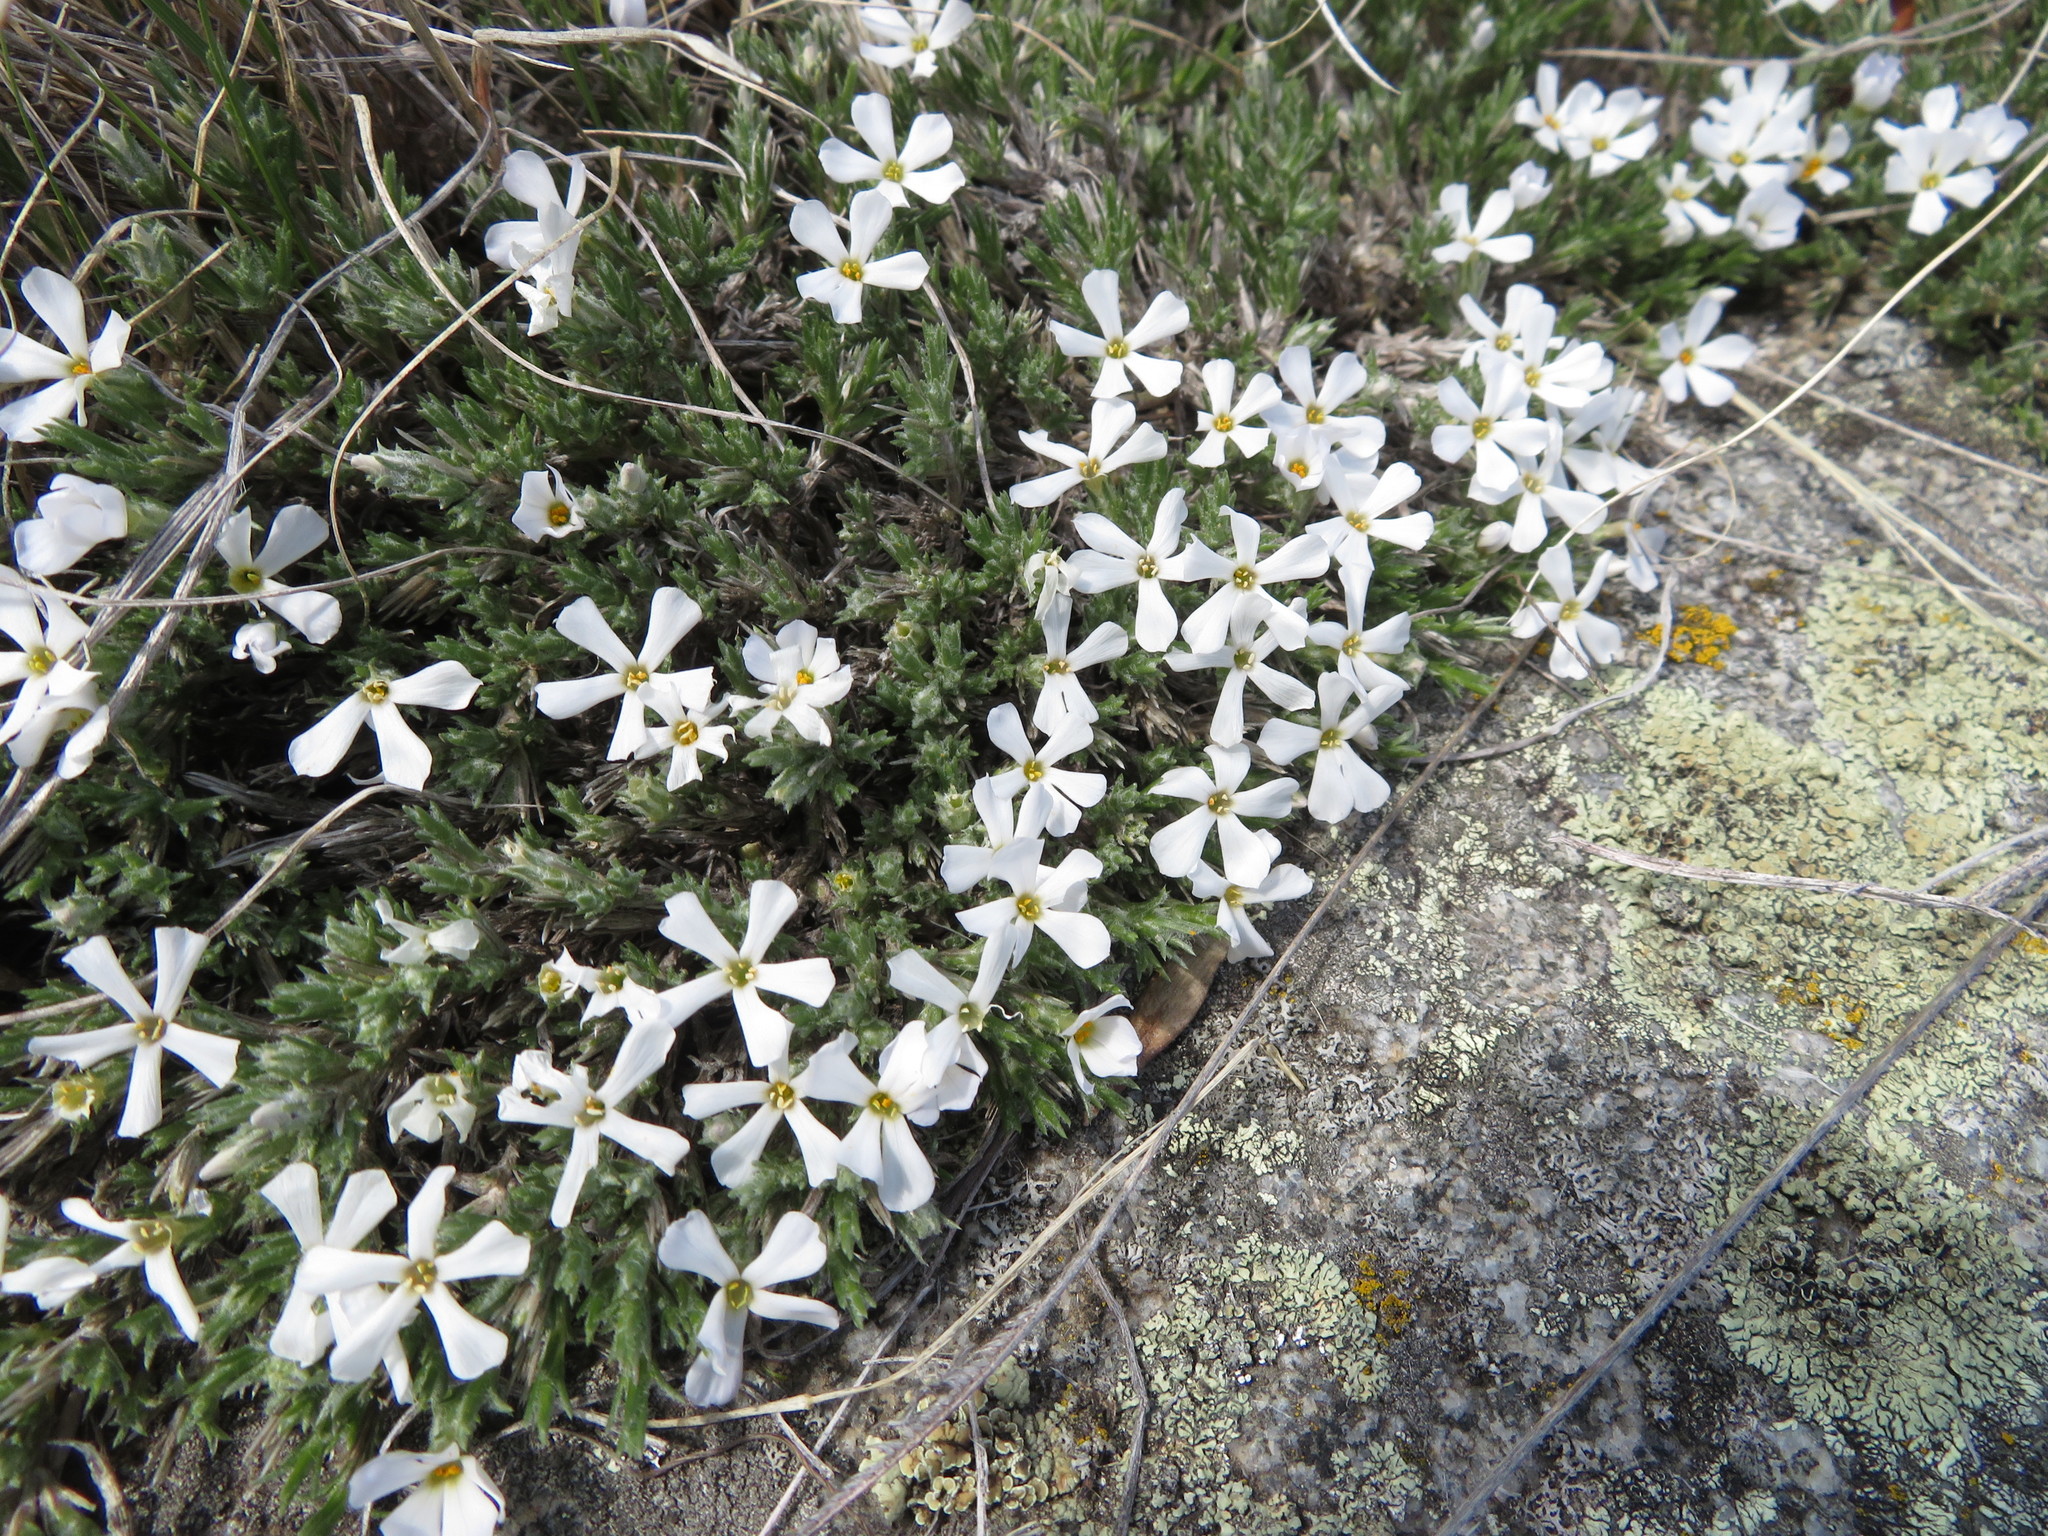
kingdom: Plantae
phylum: Tracheophyta
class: Magnoliopsida
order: Ericales
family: Polemoniaceae
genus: Phlox
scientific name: Phlox hoodii
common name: Moss phlox
